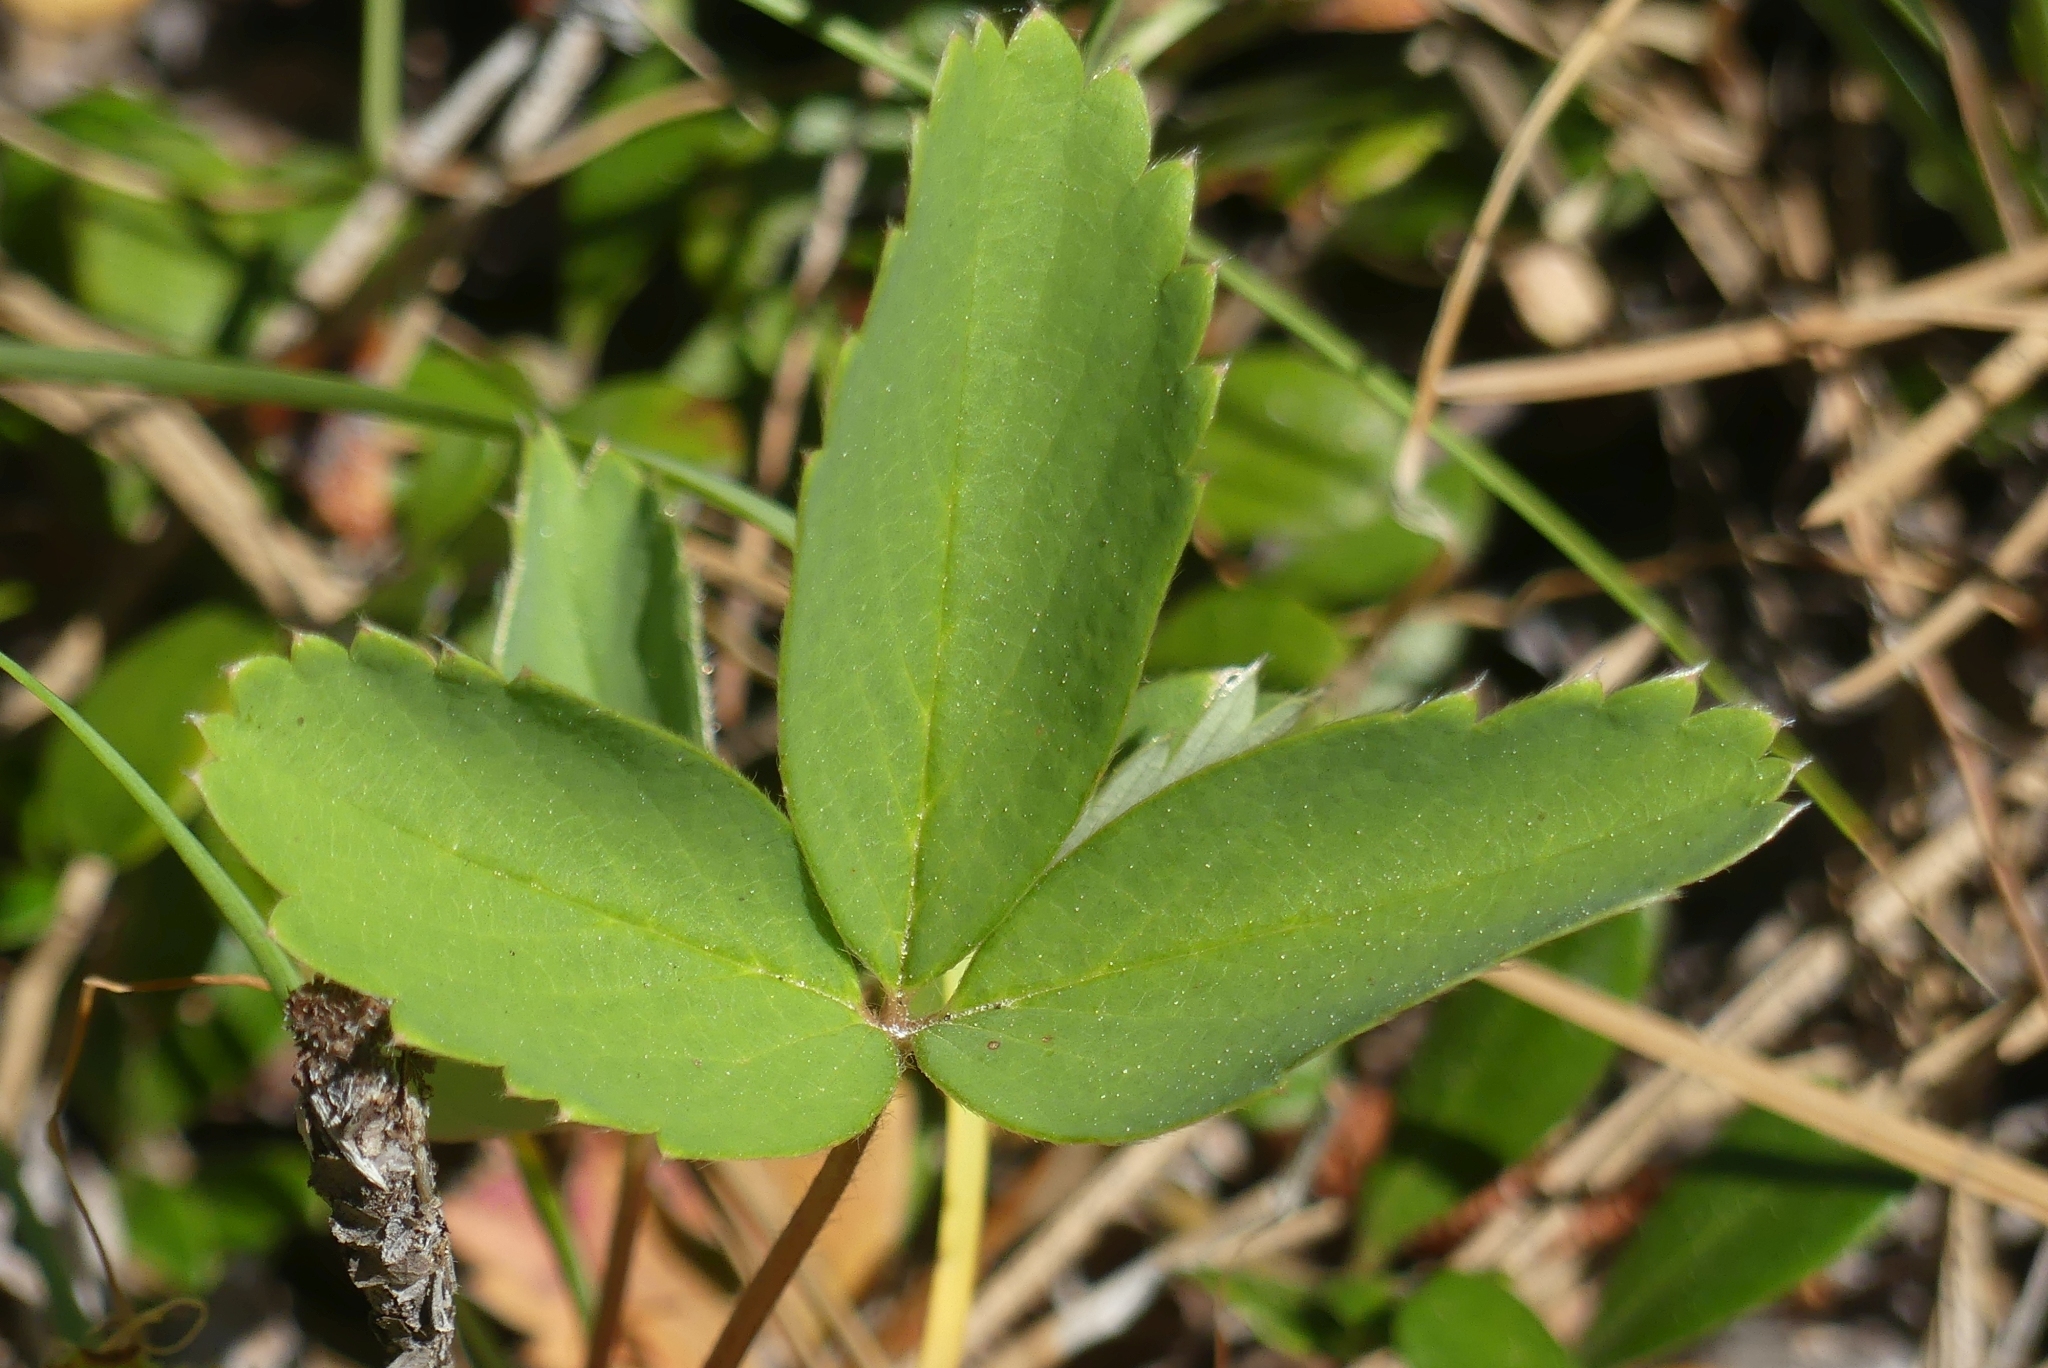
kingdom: Plantae
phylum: Tracheophyta
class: Magnoliopsida
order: Rosales
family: Rosaceae
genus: Fragaria
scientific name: Fragaria virginiana
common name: Thickleaved wild strawberry
